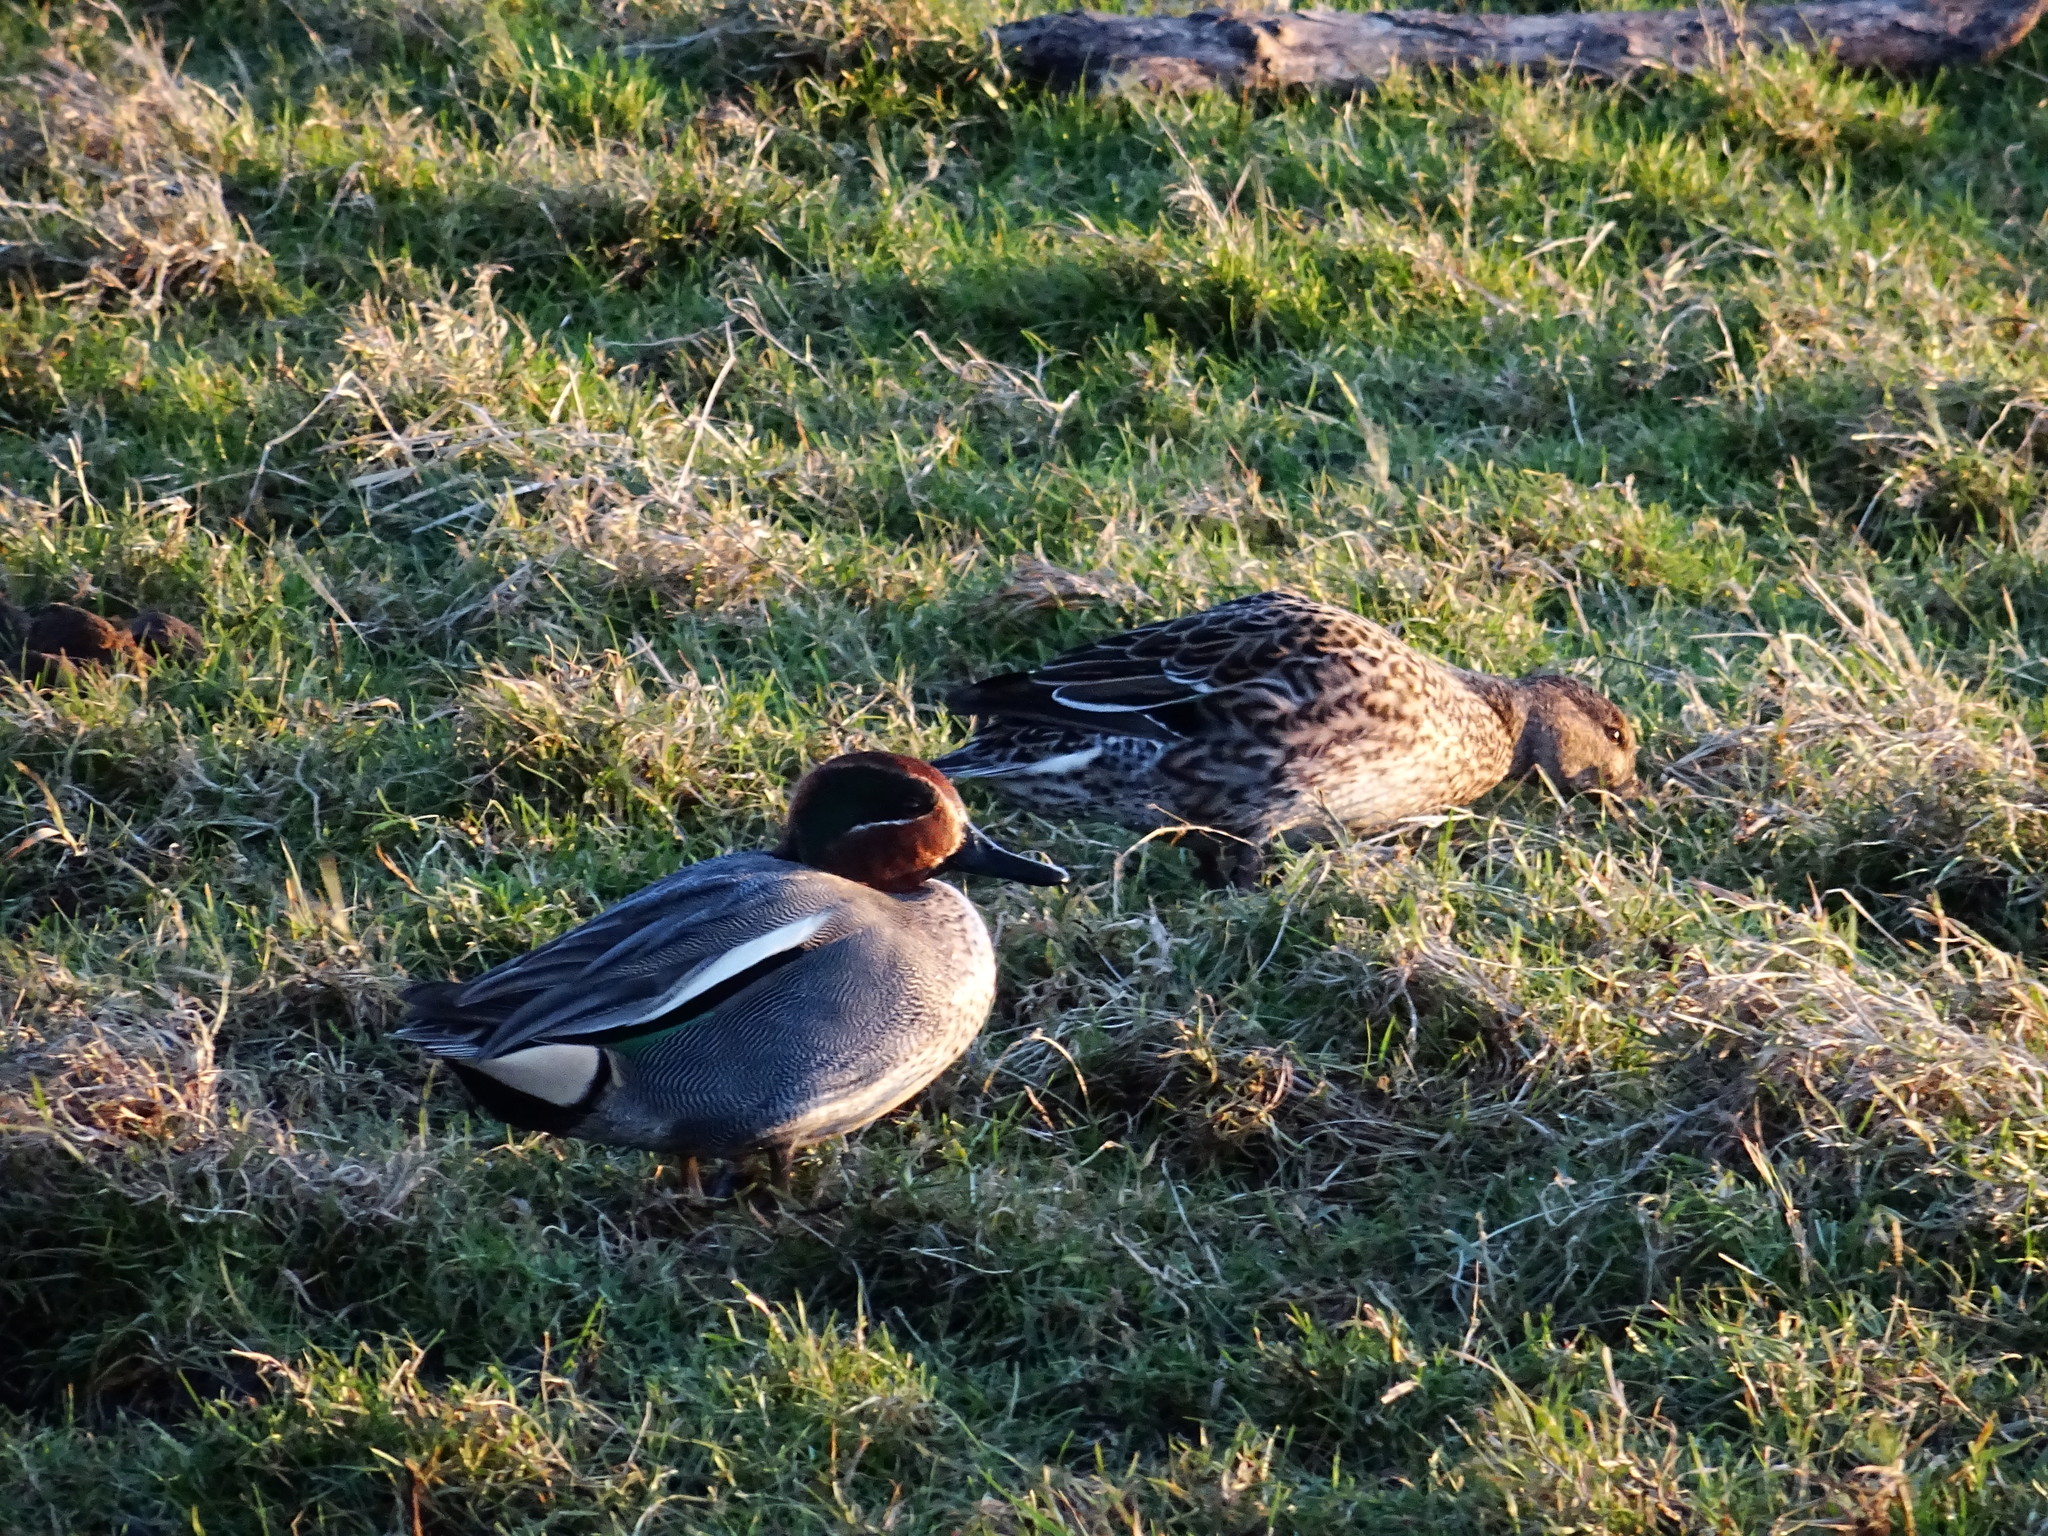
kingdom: Animalia
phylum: Chordata
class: Aves
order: Anseriformes
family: Anatidae
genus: Anas
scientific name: Anas crecca
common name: Eurasian teal
